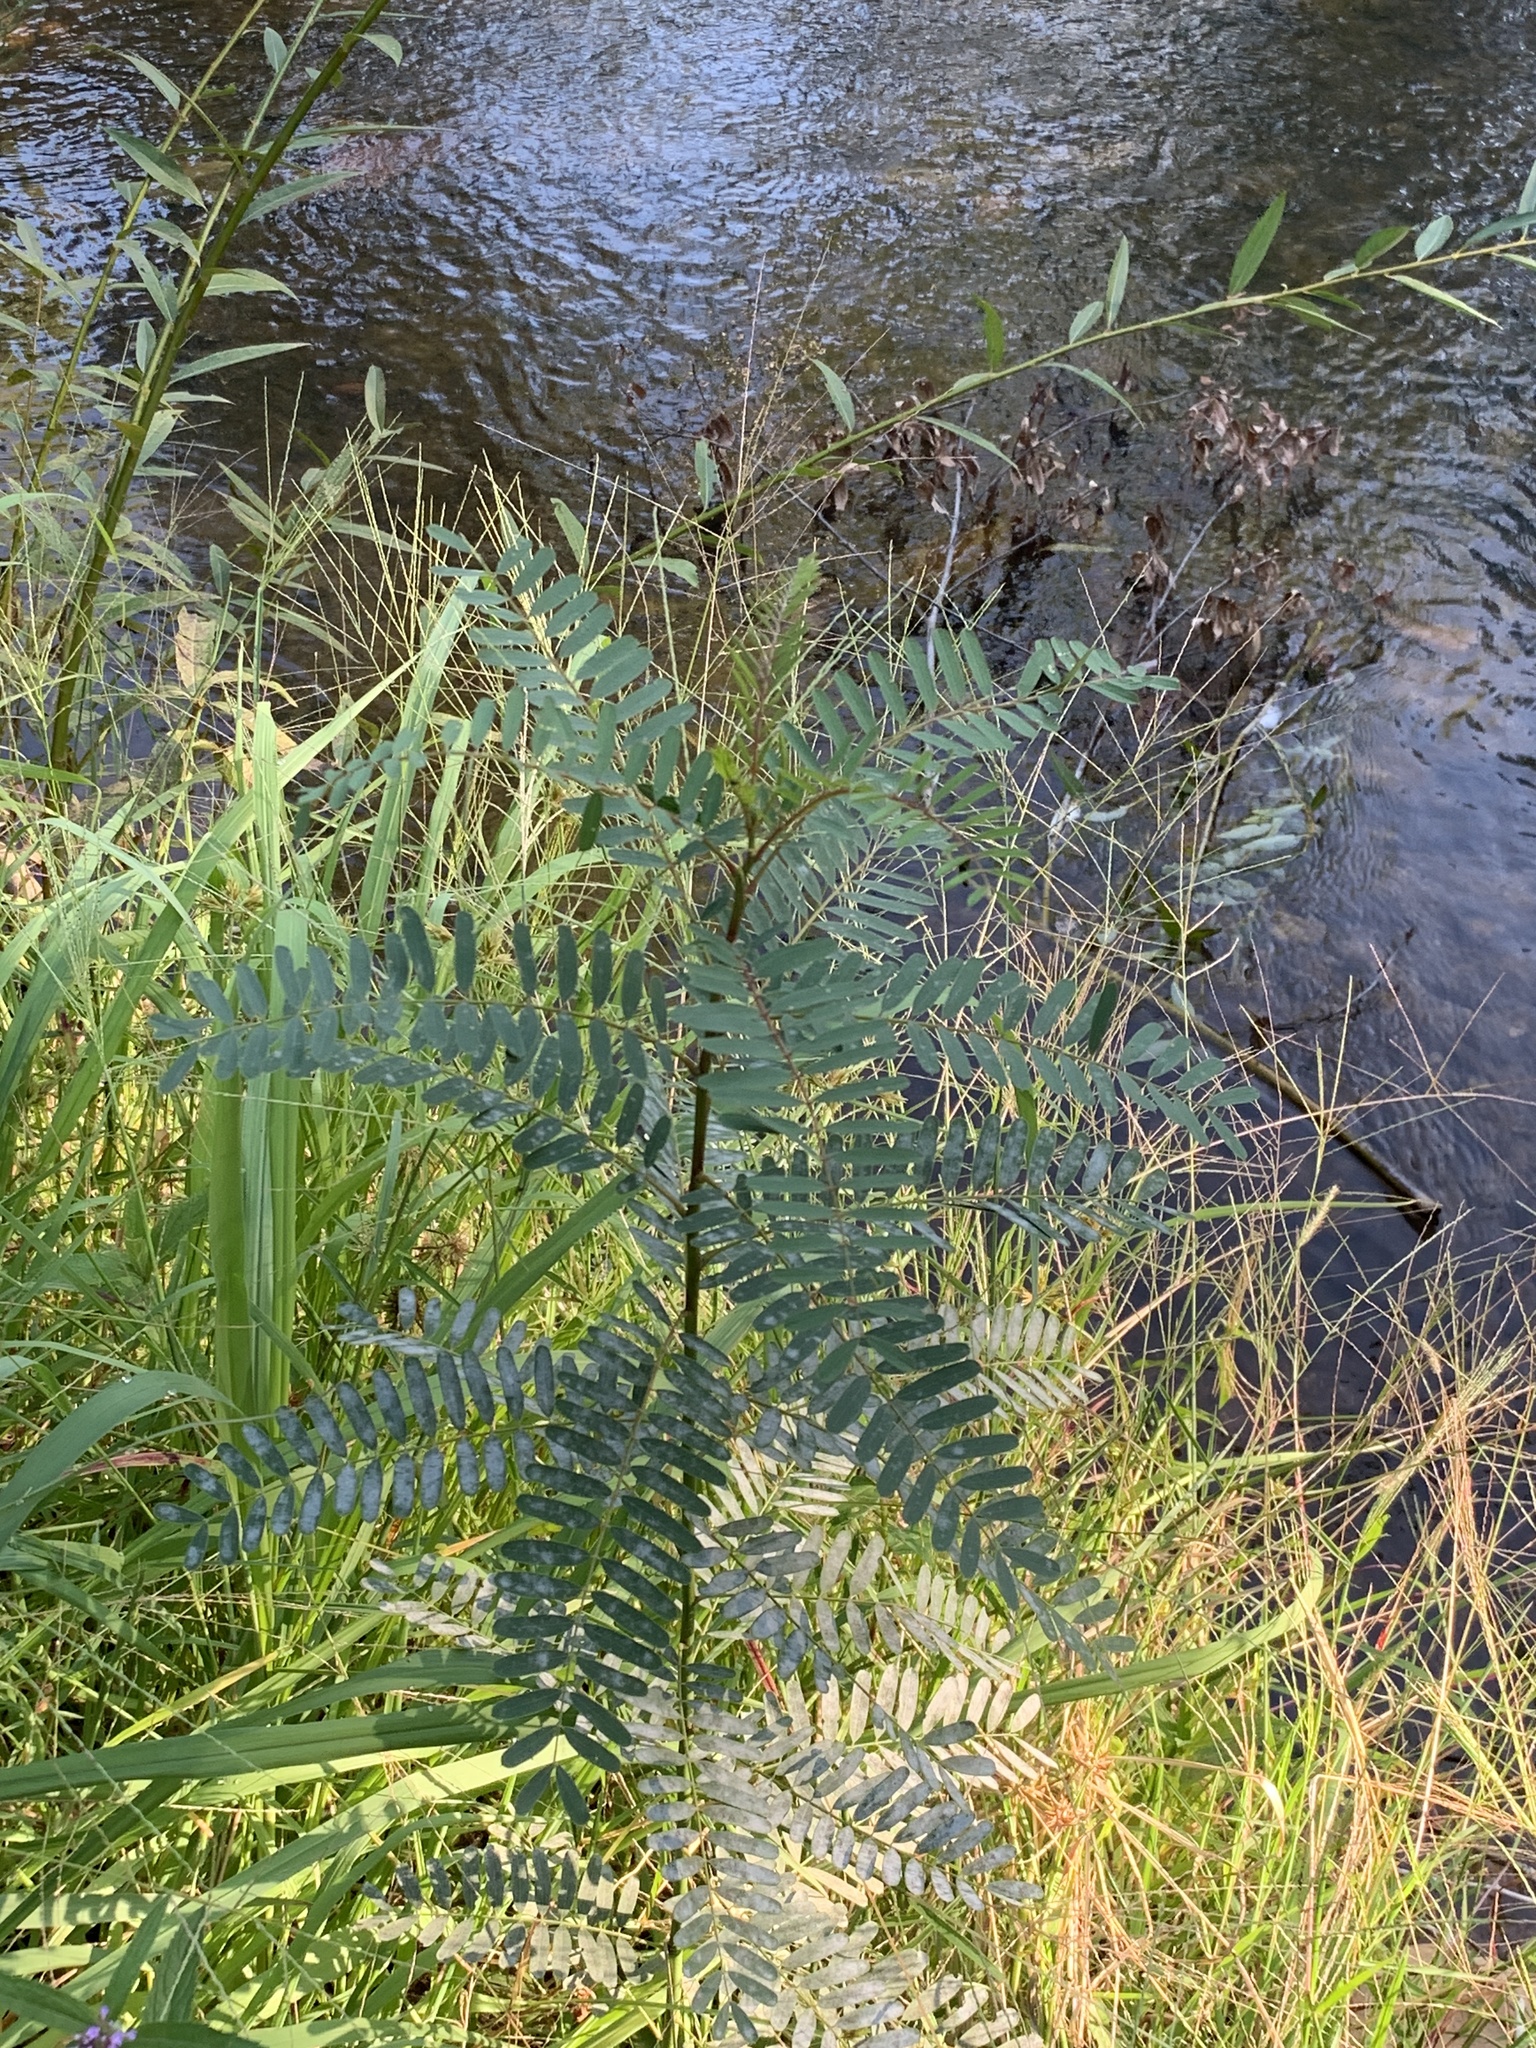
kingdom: Plantae
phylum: Tracheophyta
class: Magnoliopsida
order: Fabales
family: Fabaceae
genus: Sesbania
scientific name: Sesbania punicea
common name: Rattlebox
